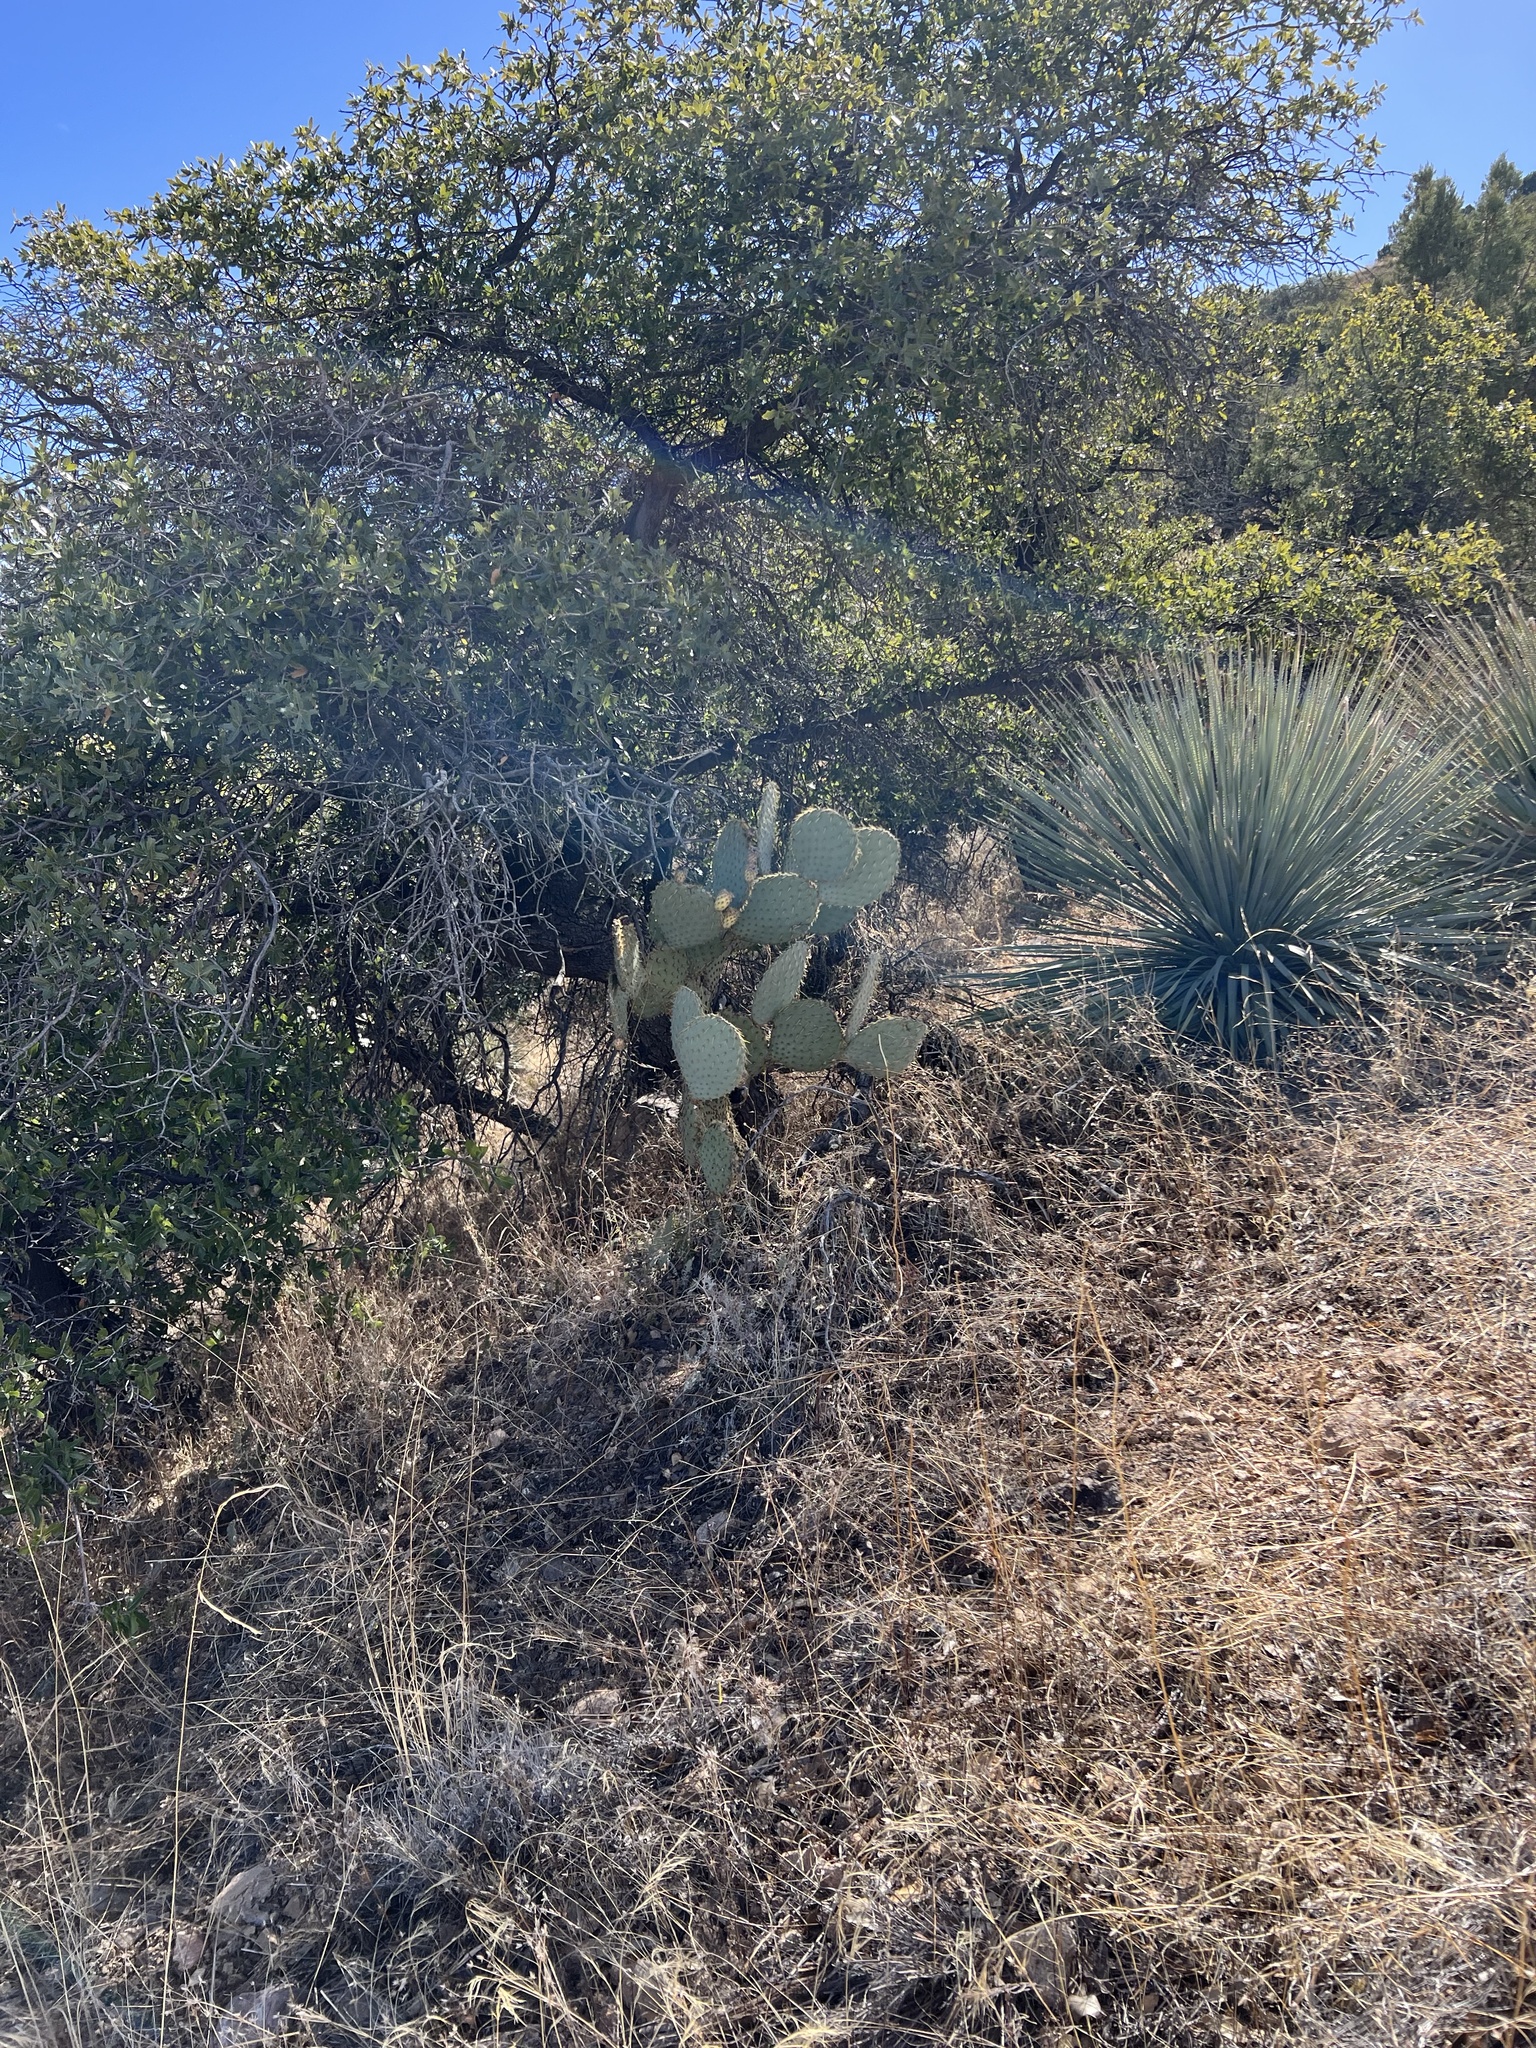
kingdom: Plantae
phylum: Tracheophyta
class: Magnoliopsida
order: Caryophyllales
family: Cactaceae
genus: Opuntia
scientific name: Opuntia chlorotica
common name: Dollar-joint prickly-pear
